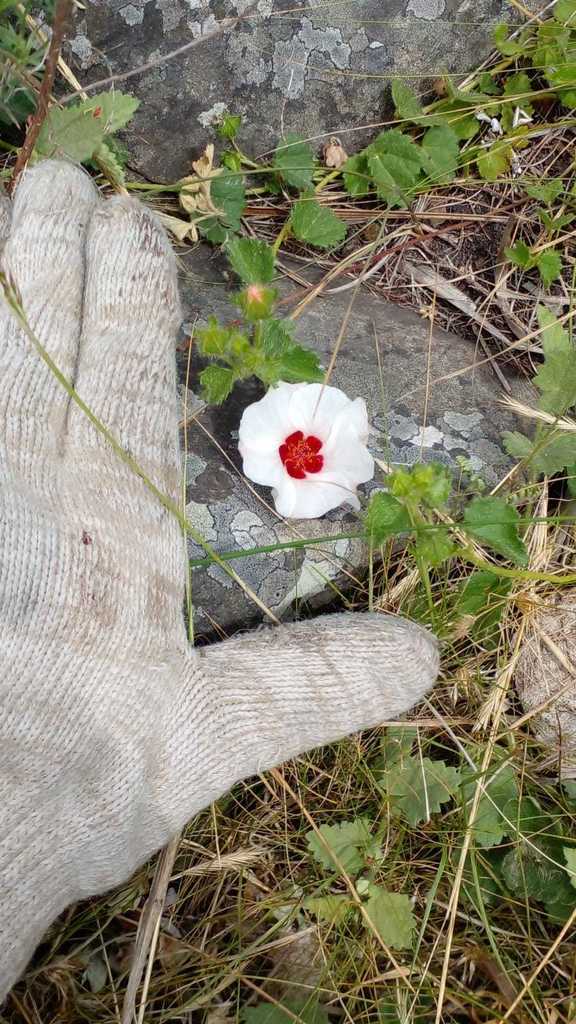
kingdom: Plantae
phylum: Tracheophyta
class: Magnoliopsida
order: Malvales
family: Malvaceae
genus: Pavonia
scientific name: Pavonia cymbalaria
